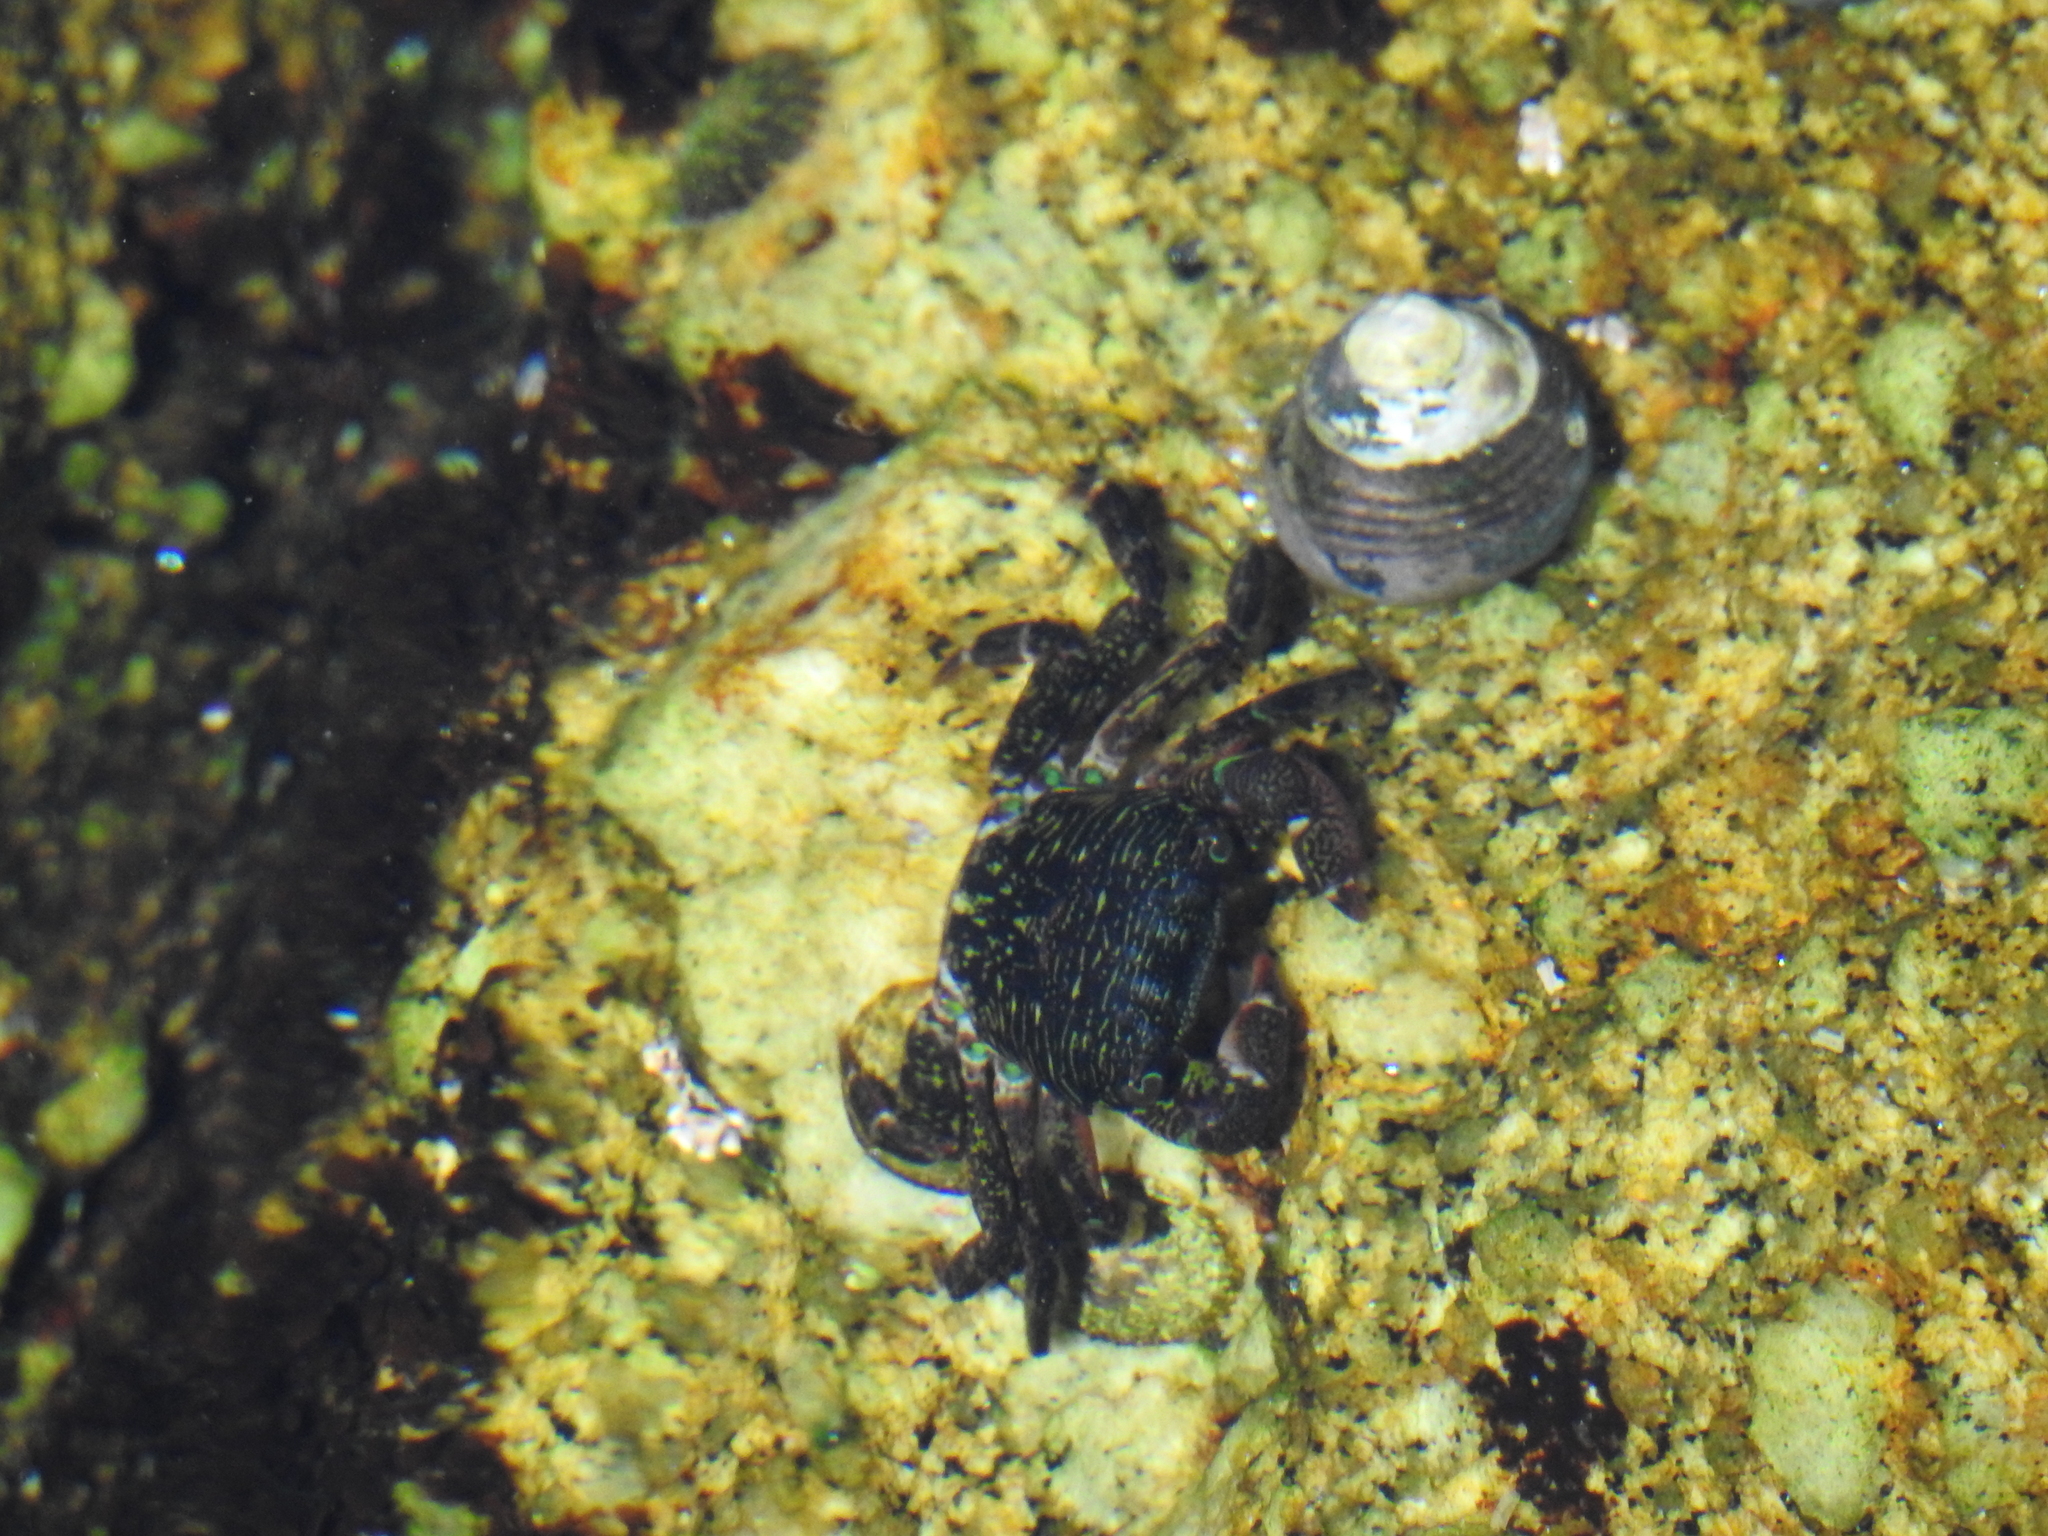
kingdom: Animalia
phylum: Arthropoda
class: Malacostraca
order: Decapoda
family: Grapsidae
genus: Pachygrapsus
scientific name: Pachygrapsus crassipes
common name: Striped shore crab
